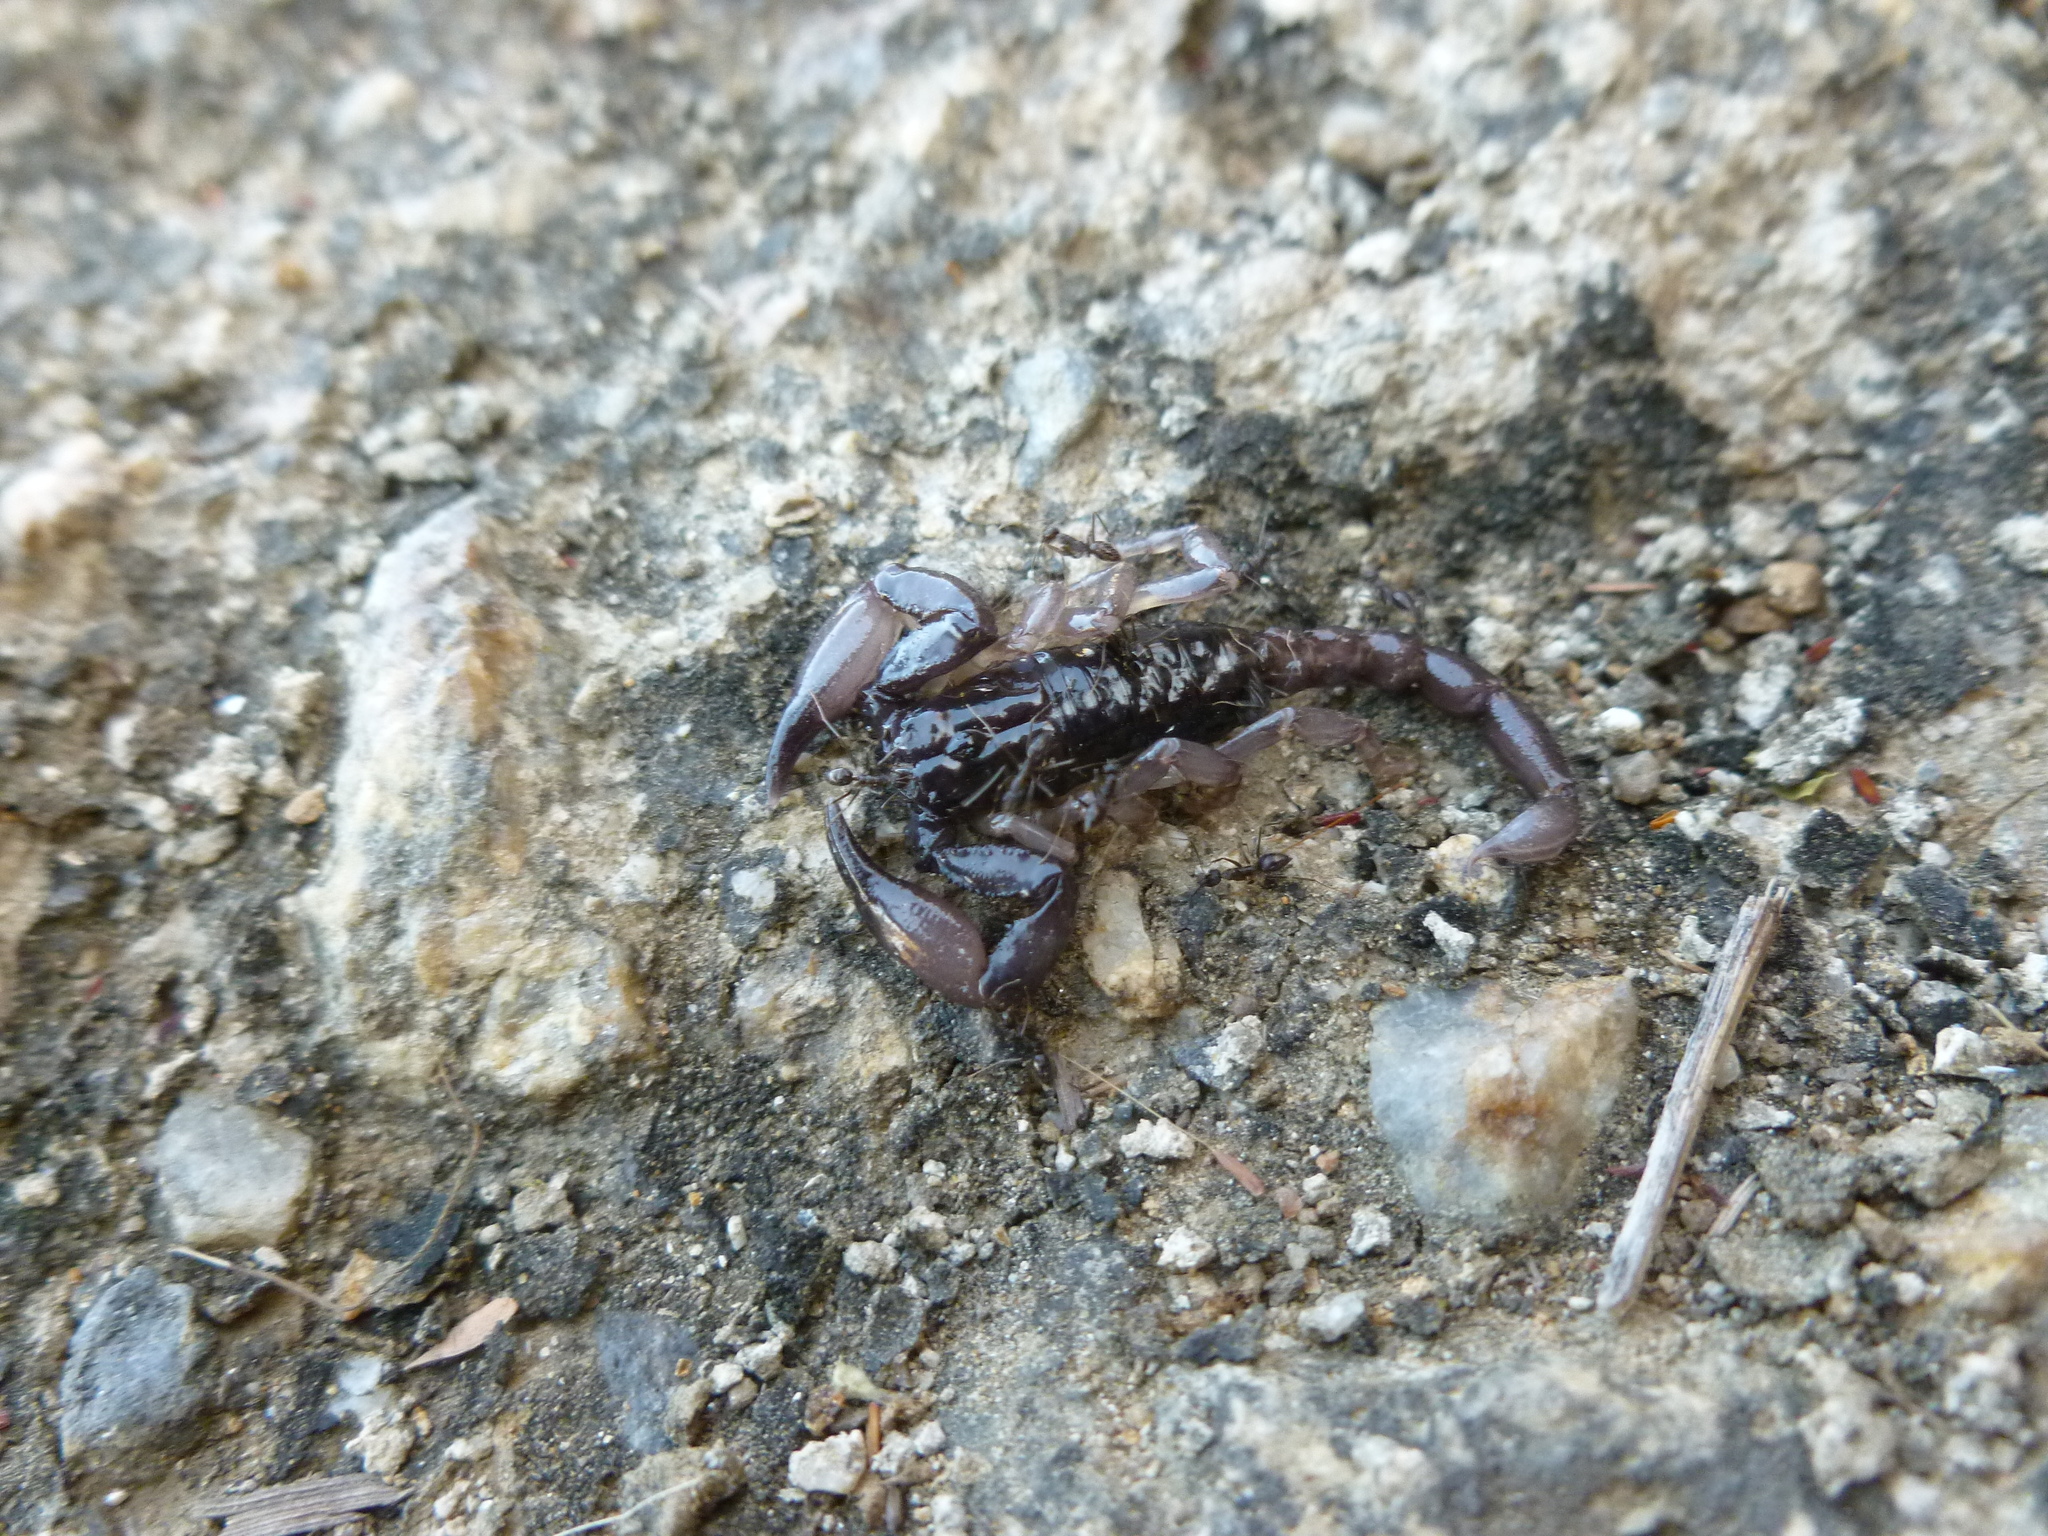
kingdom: Animalia
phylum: Arthropoda
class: Arachnida
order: Scorpiones
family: Chactidae
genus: Chactas
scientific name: Chactas
